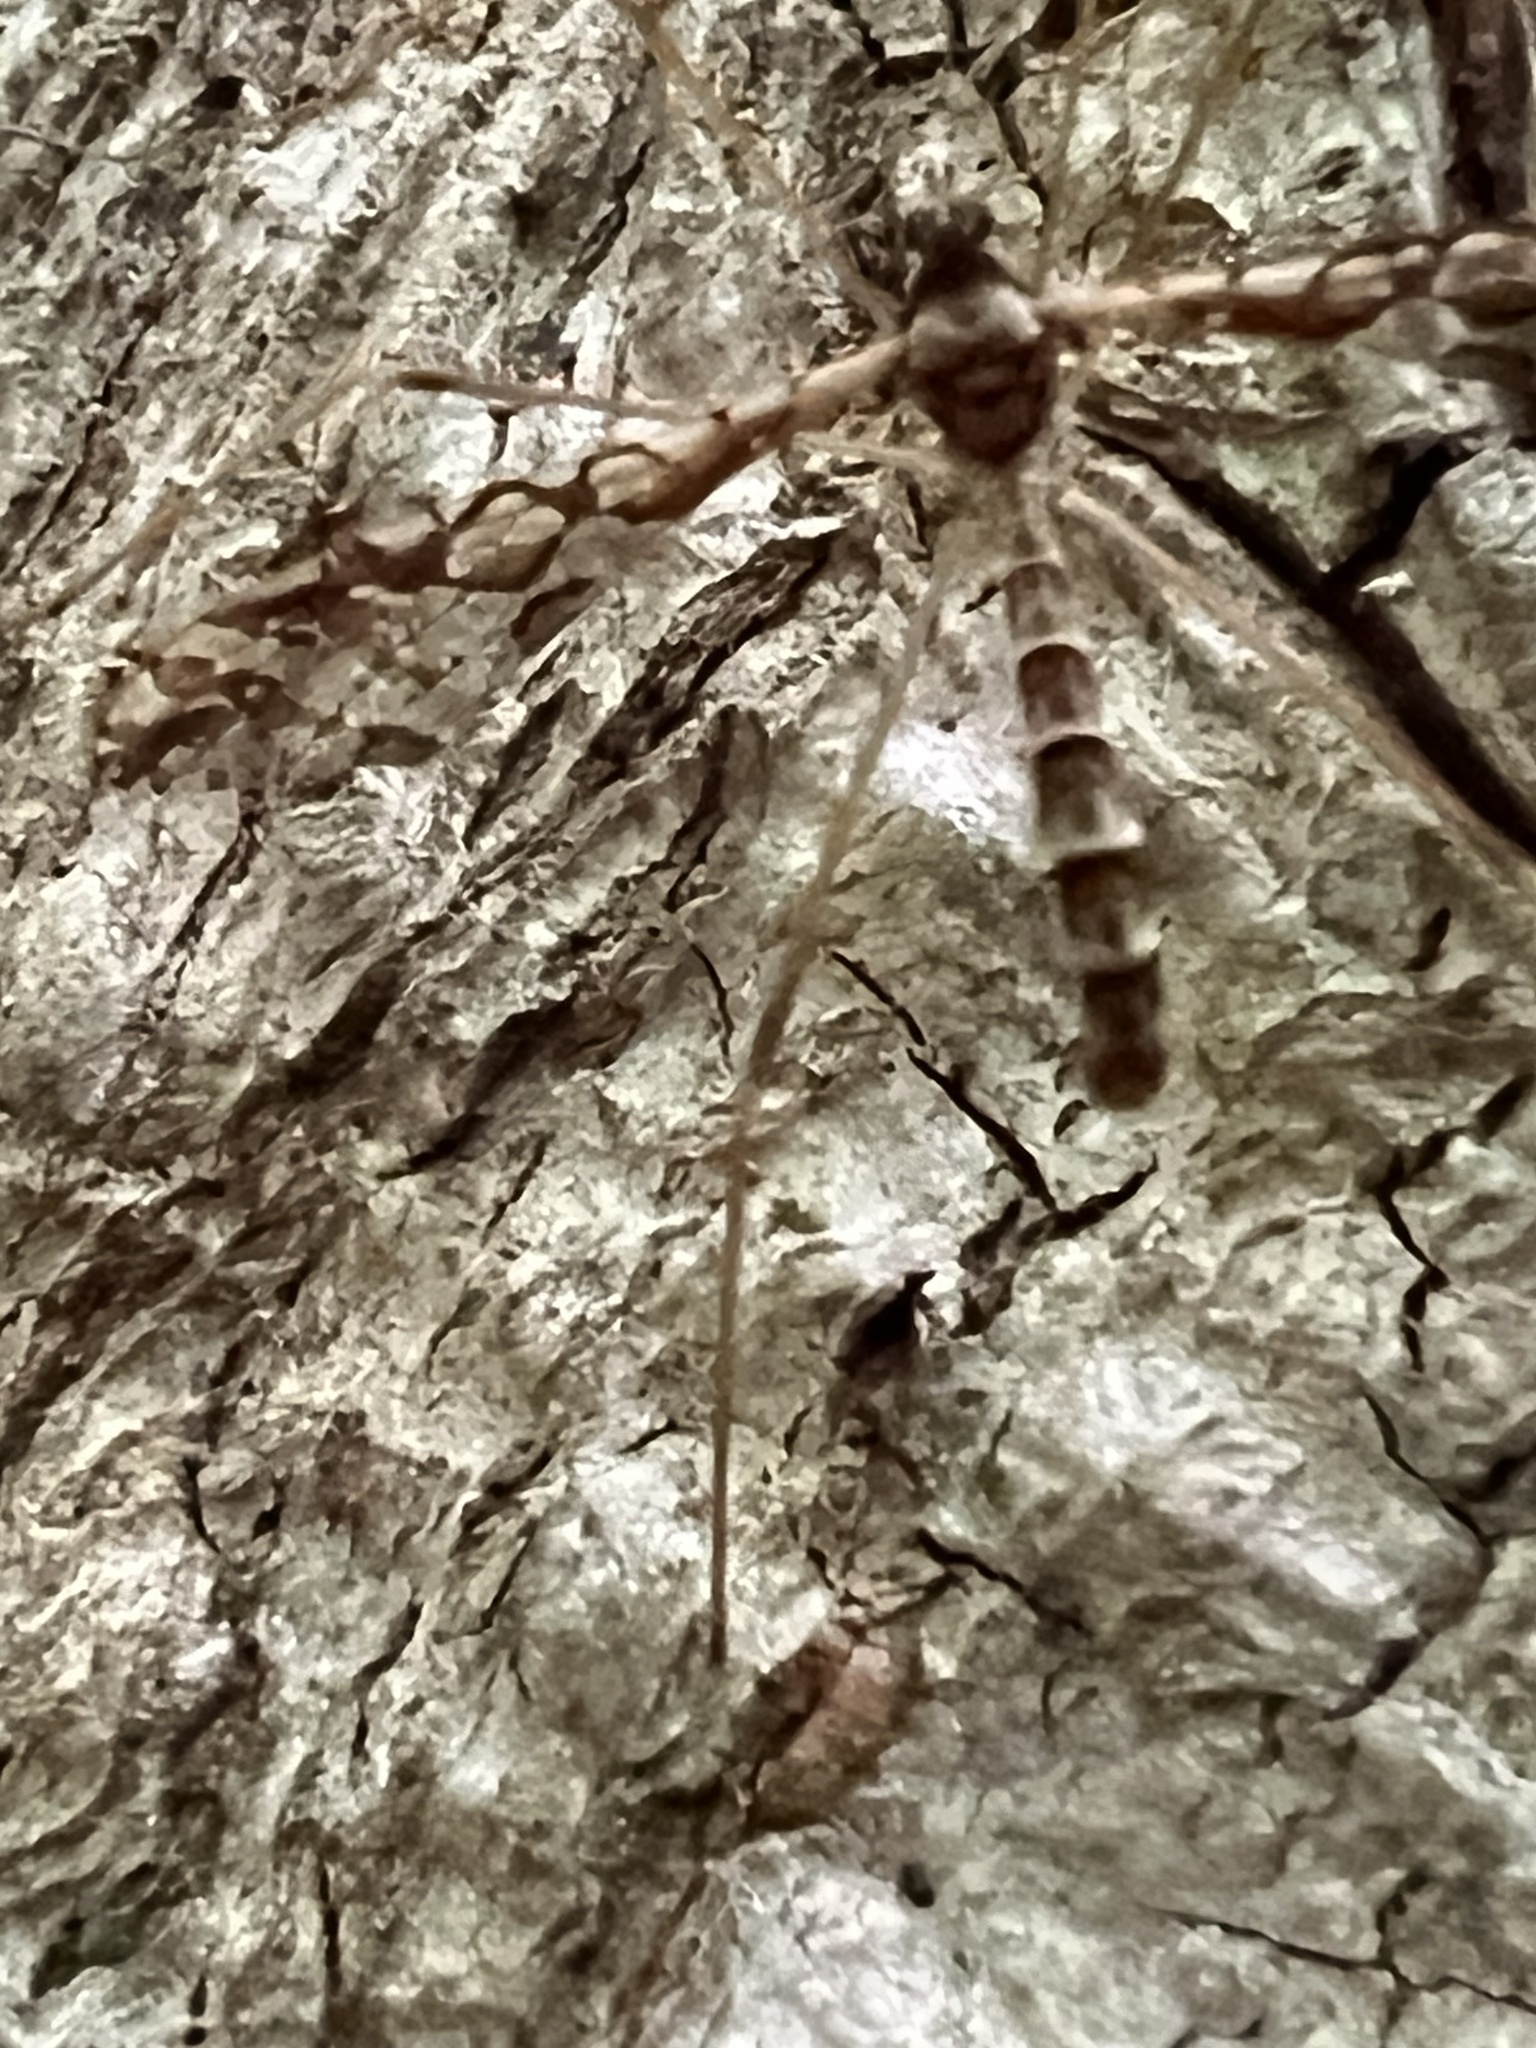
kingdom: Animalia
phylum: Arthropoda
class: Insecta
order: Diptera
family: Limoniidae
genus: Epiphragma
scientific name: Epiphragma solatrix
